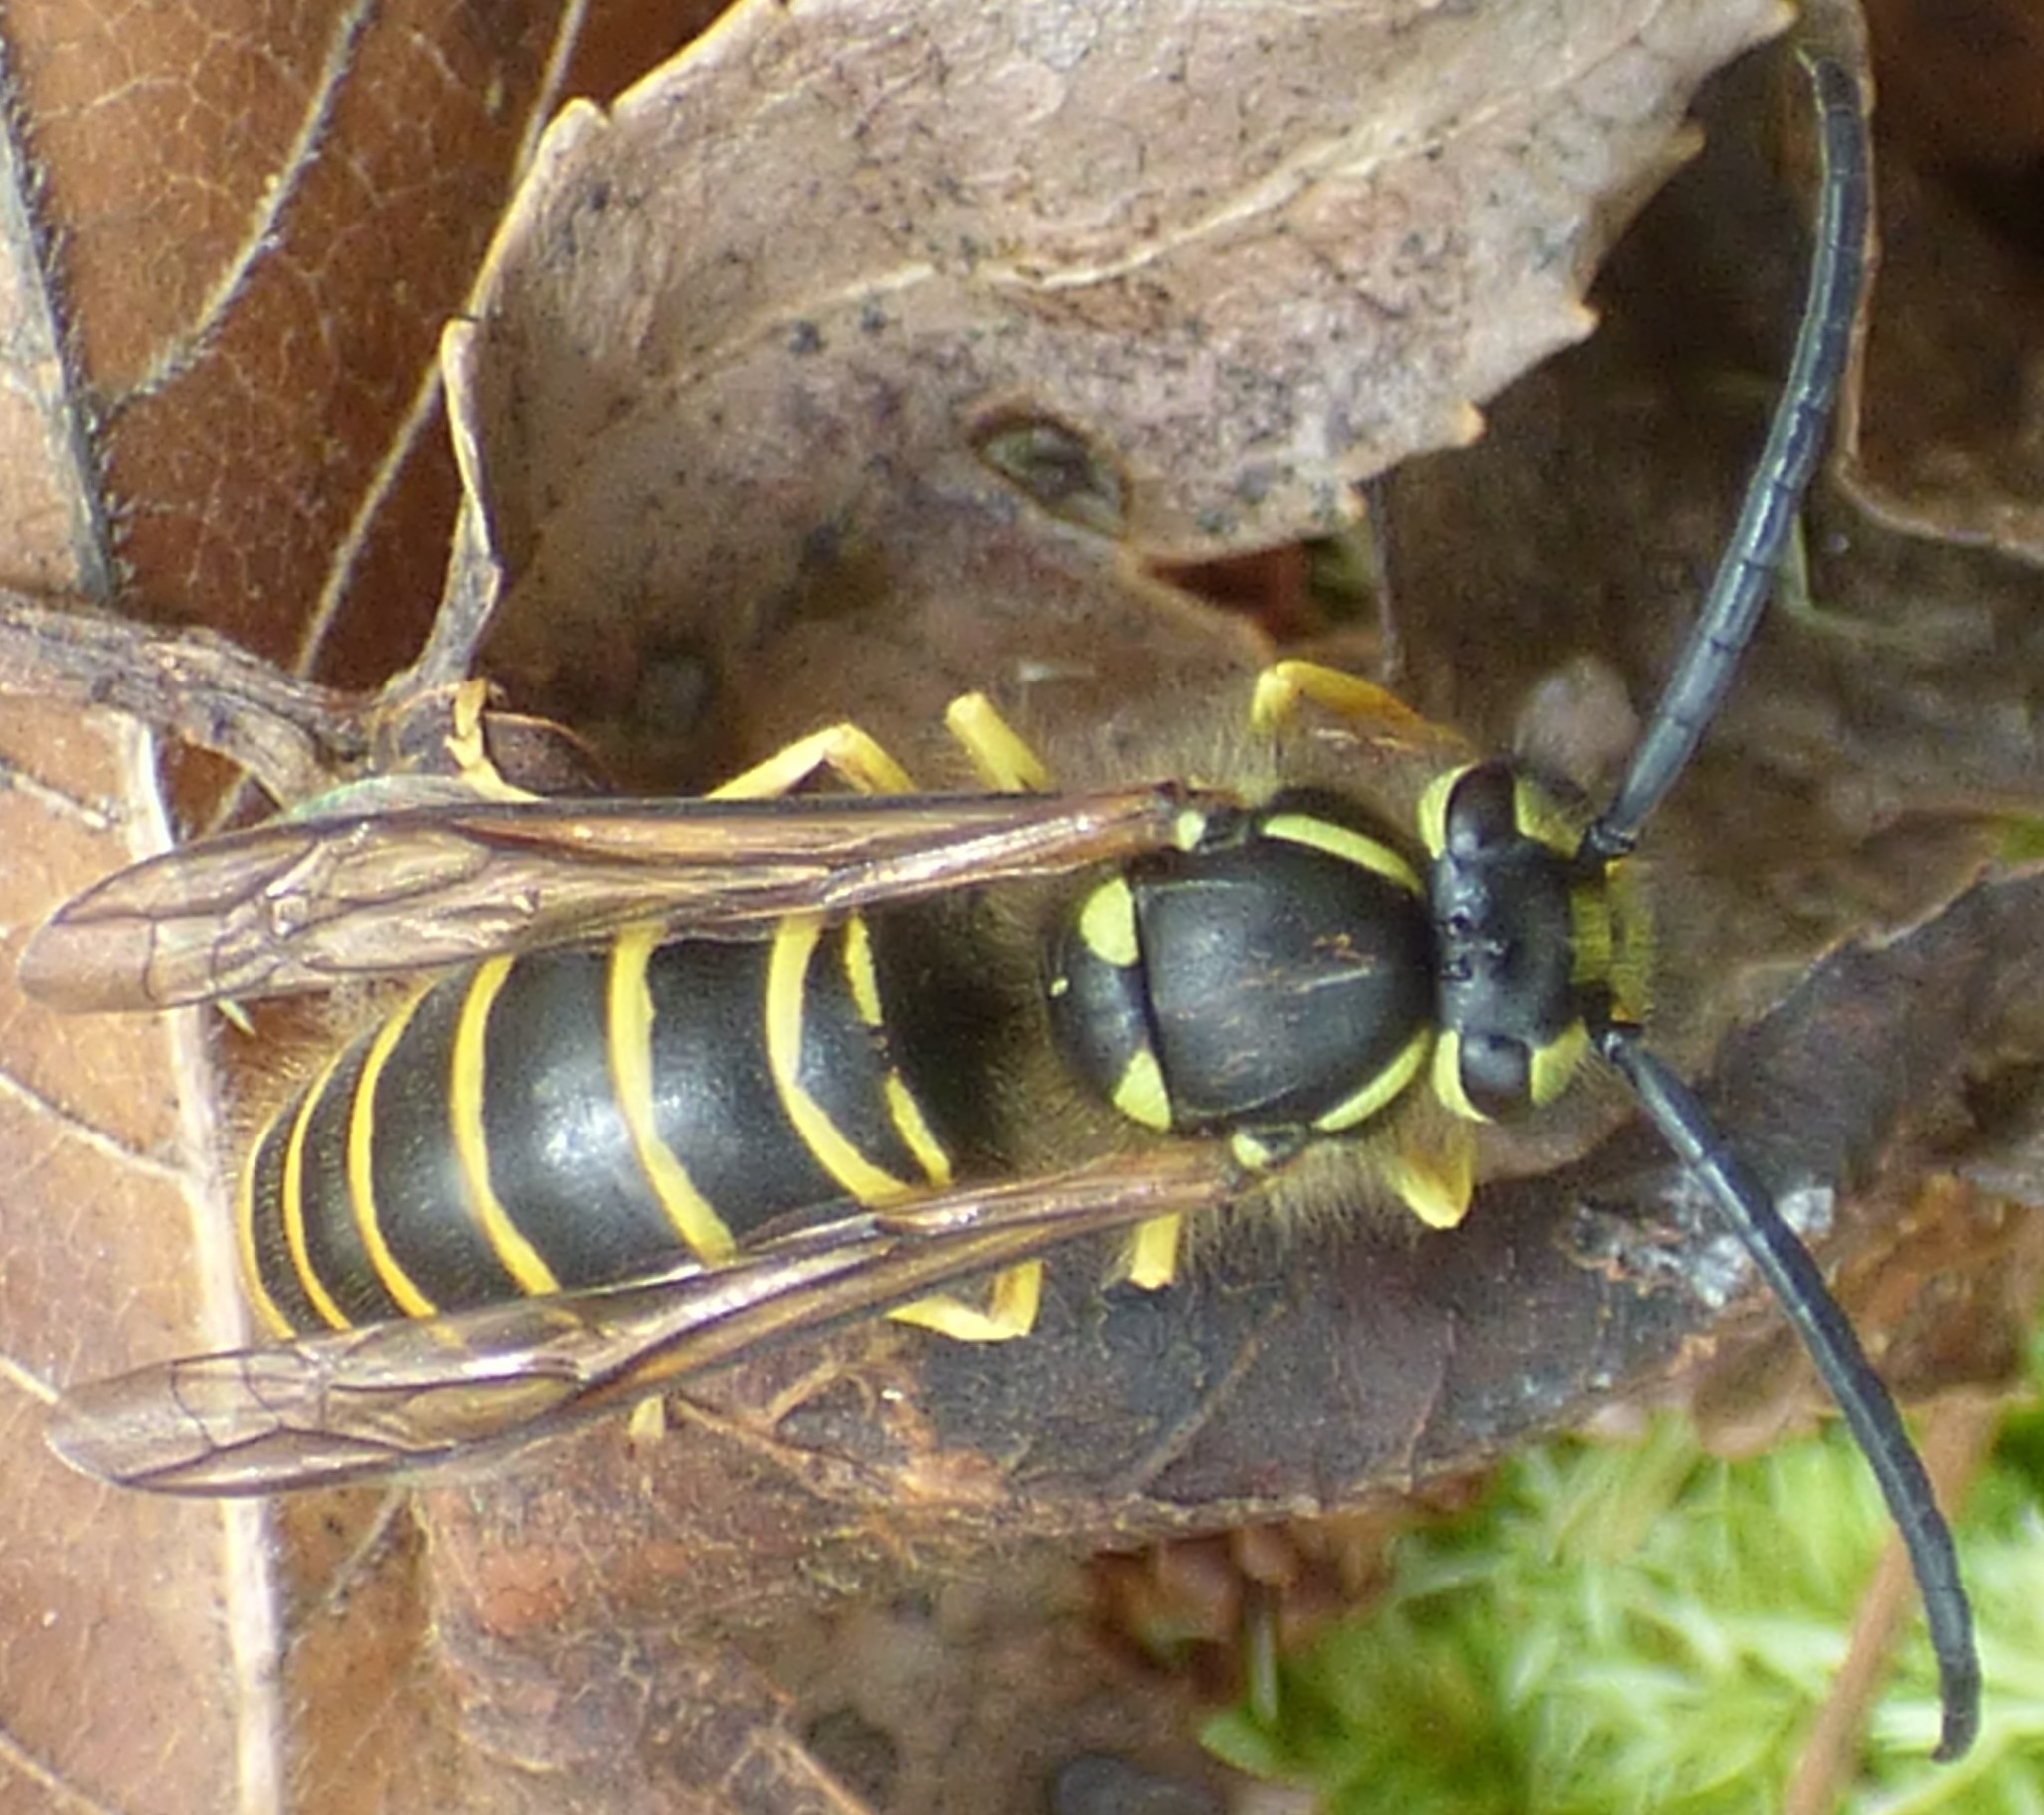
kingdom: Animalia
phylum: Arthropoda
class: Insecta
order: Hymenoptera
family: Vespidae
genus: Vespula
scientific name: Vespula maculifrons
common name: Eastern yellowjacket
